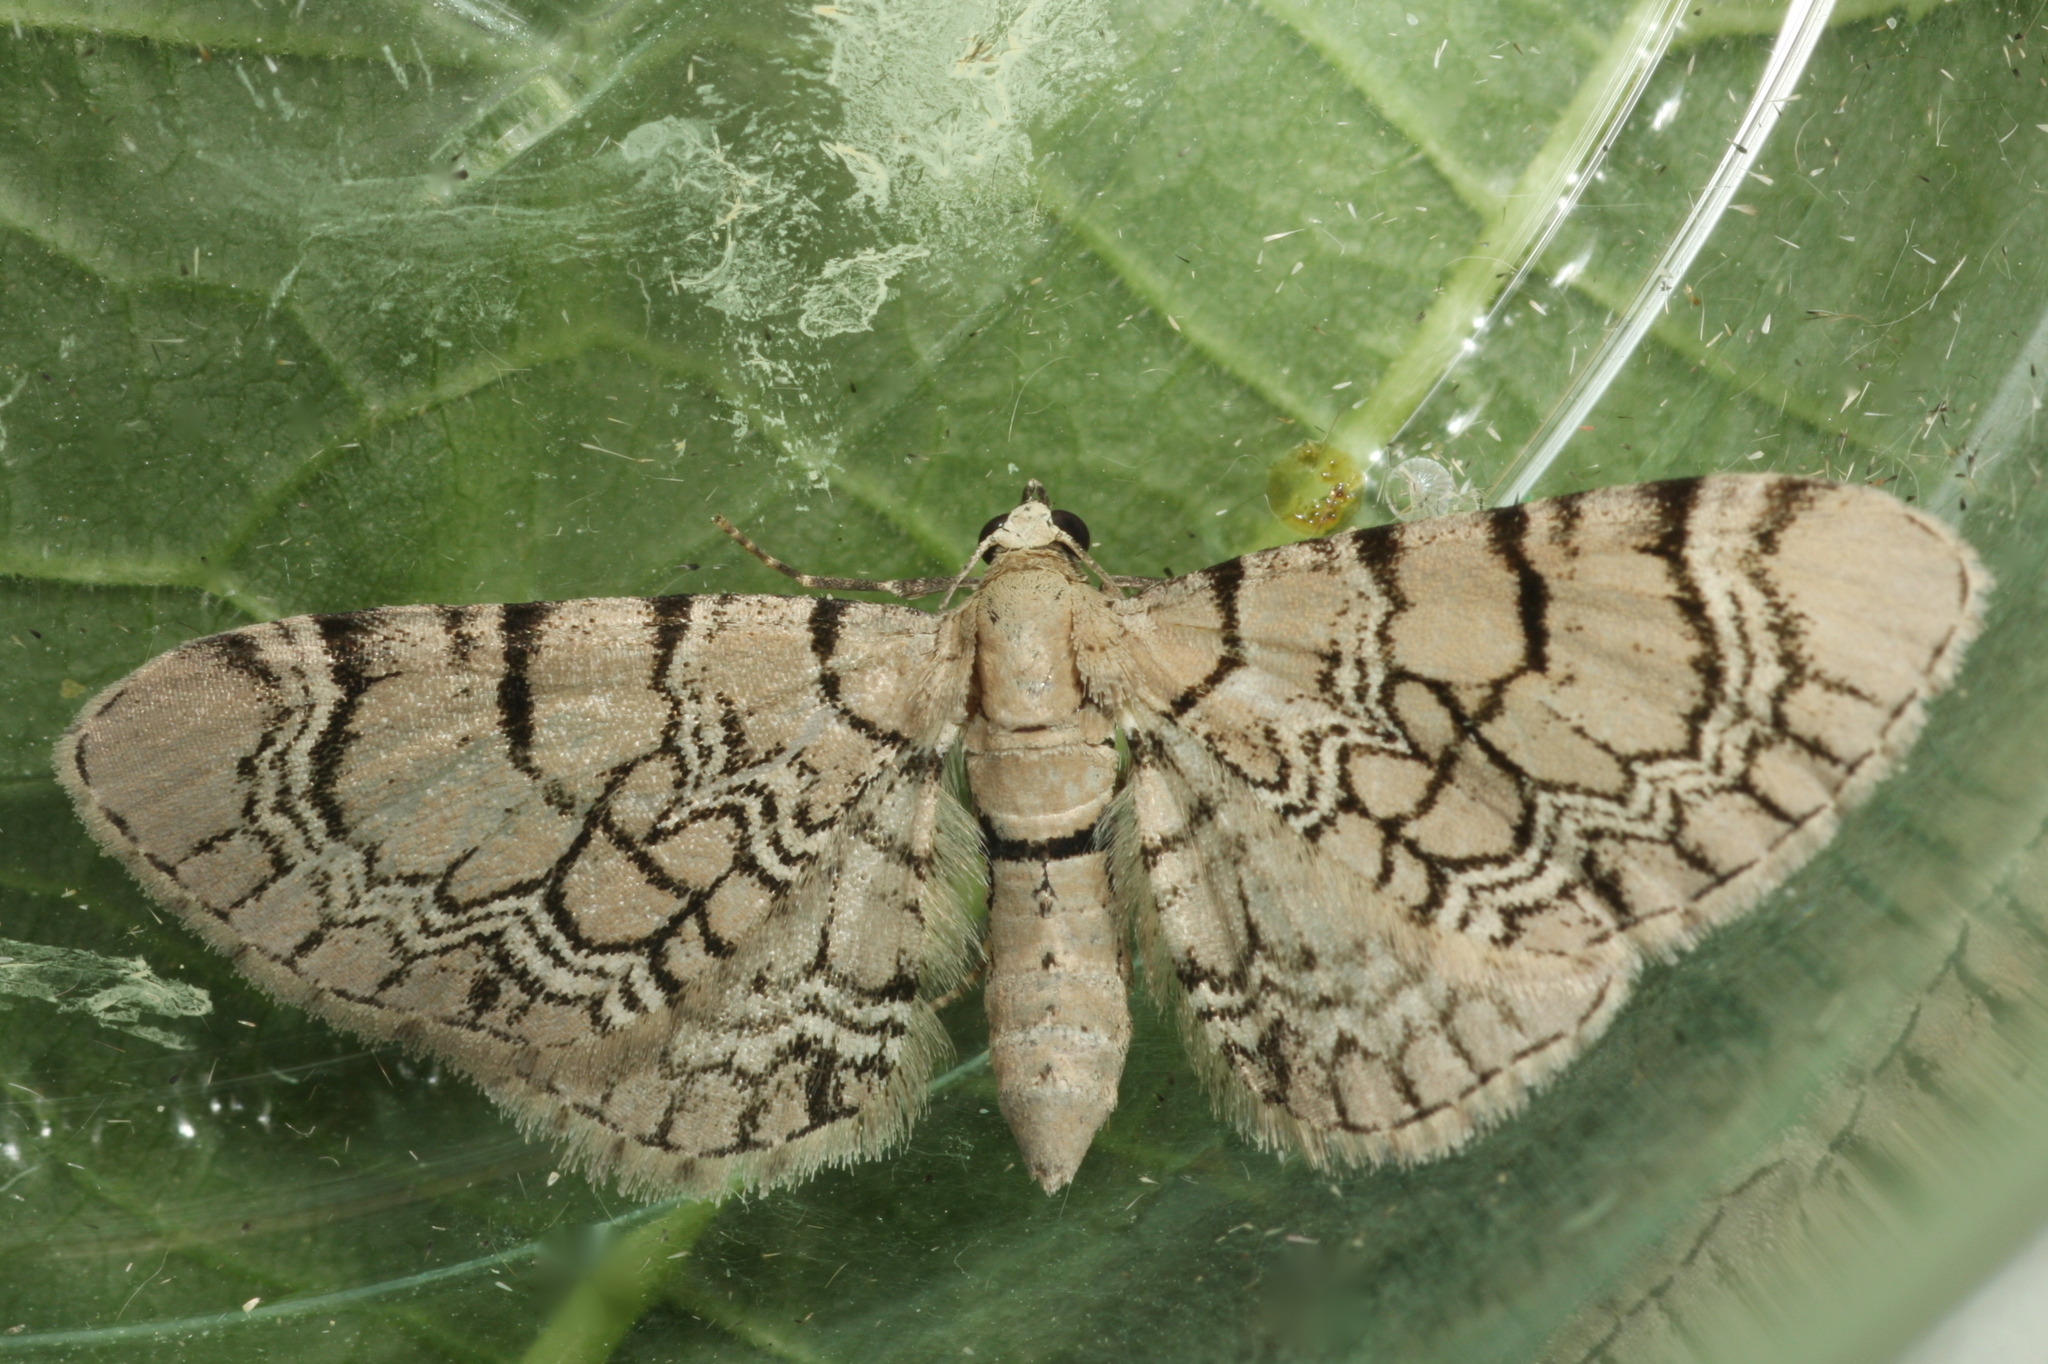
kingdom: Animalia
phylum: Arthropoda
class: Insecta
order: Lepidoptera
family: Geometridae
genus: Eupithecia
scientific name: Eupithecia venosata
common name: Netted pug
